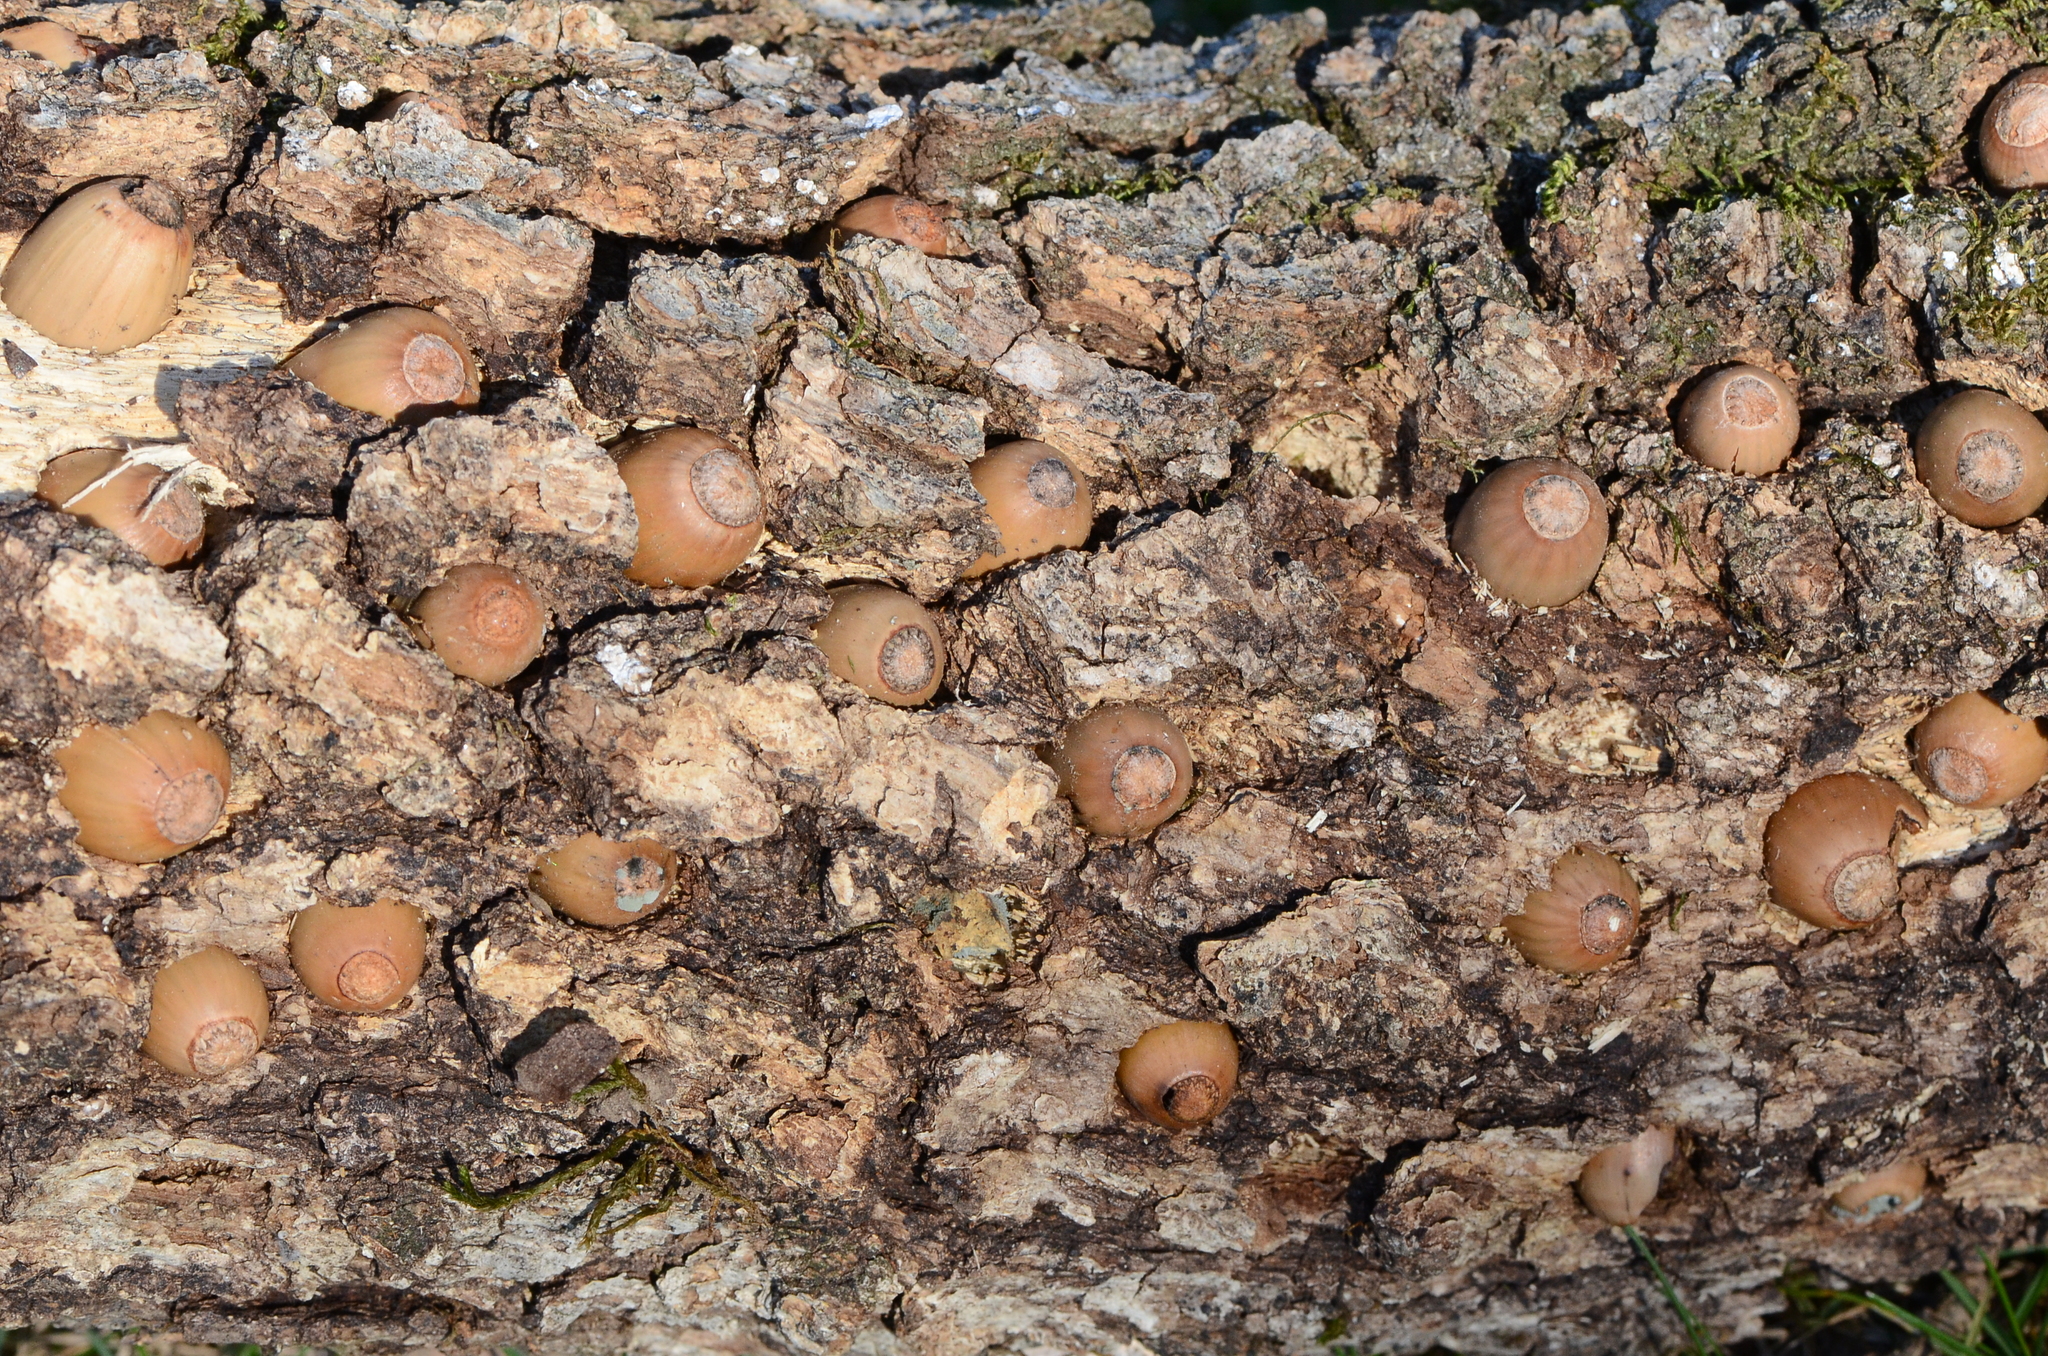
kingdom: Animalia
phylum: Chordata
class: Aves
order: Piciformes
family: Picidae
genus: Melanerpes
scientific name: Melanerpes formicivorus
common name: Acorn woodpecker
